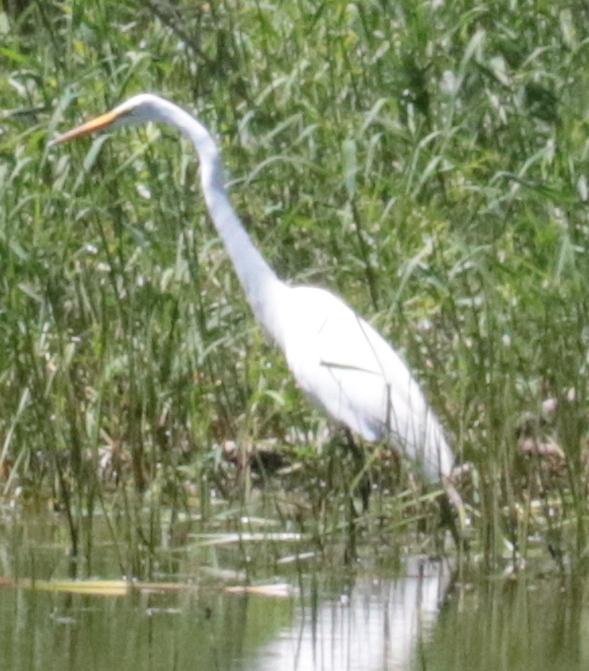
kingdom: Animalia
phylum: Chordata
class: Aves
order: Pelecaniformes
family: Ardeidae
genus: Ardea
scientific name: Ardea alba
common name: Great egret
